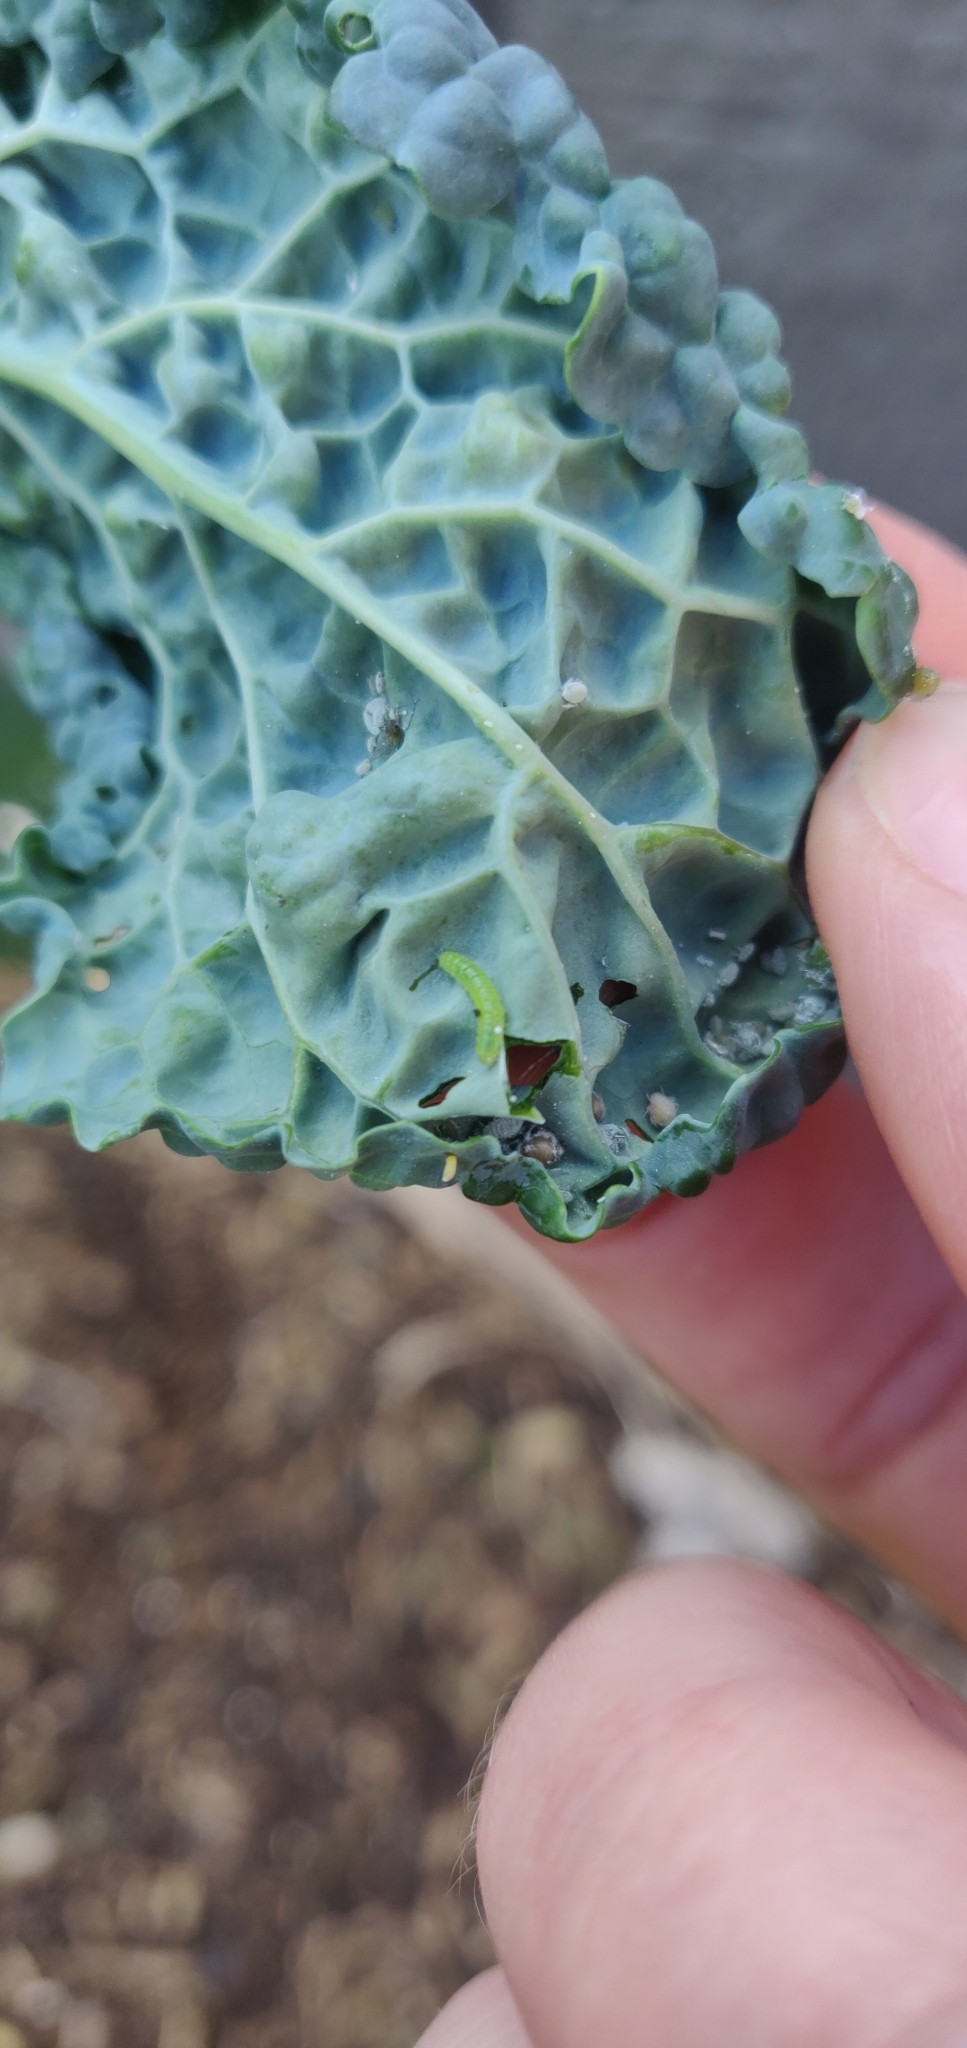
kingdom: Animalia
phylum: Arthropoda
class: Insecta
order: Lepidoptera
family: Pieridae
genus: Pieris
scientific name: Pieris rapae
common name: Small white
